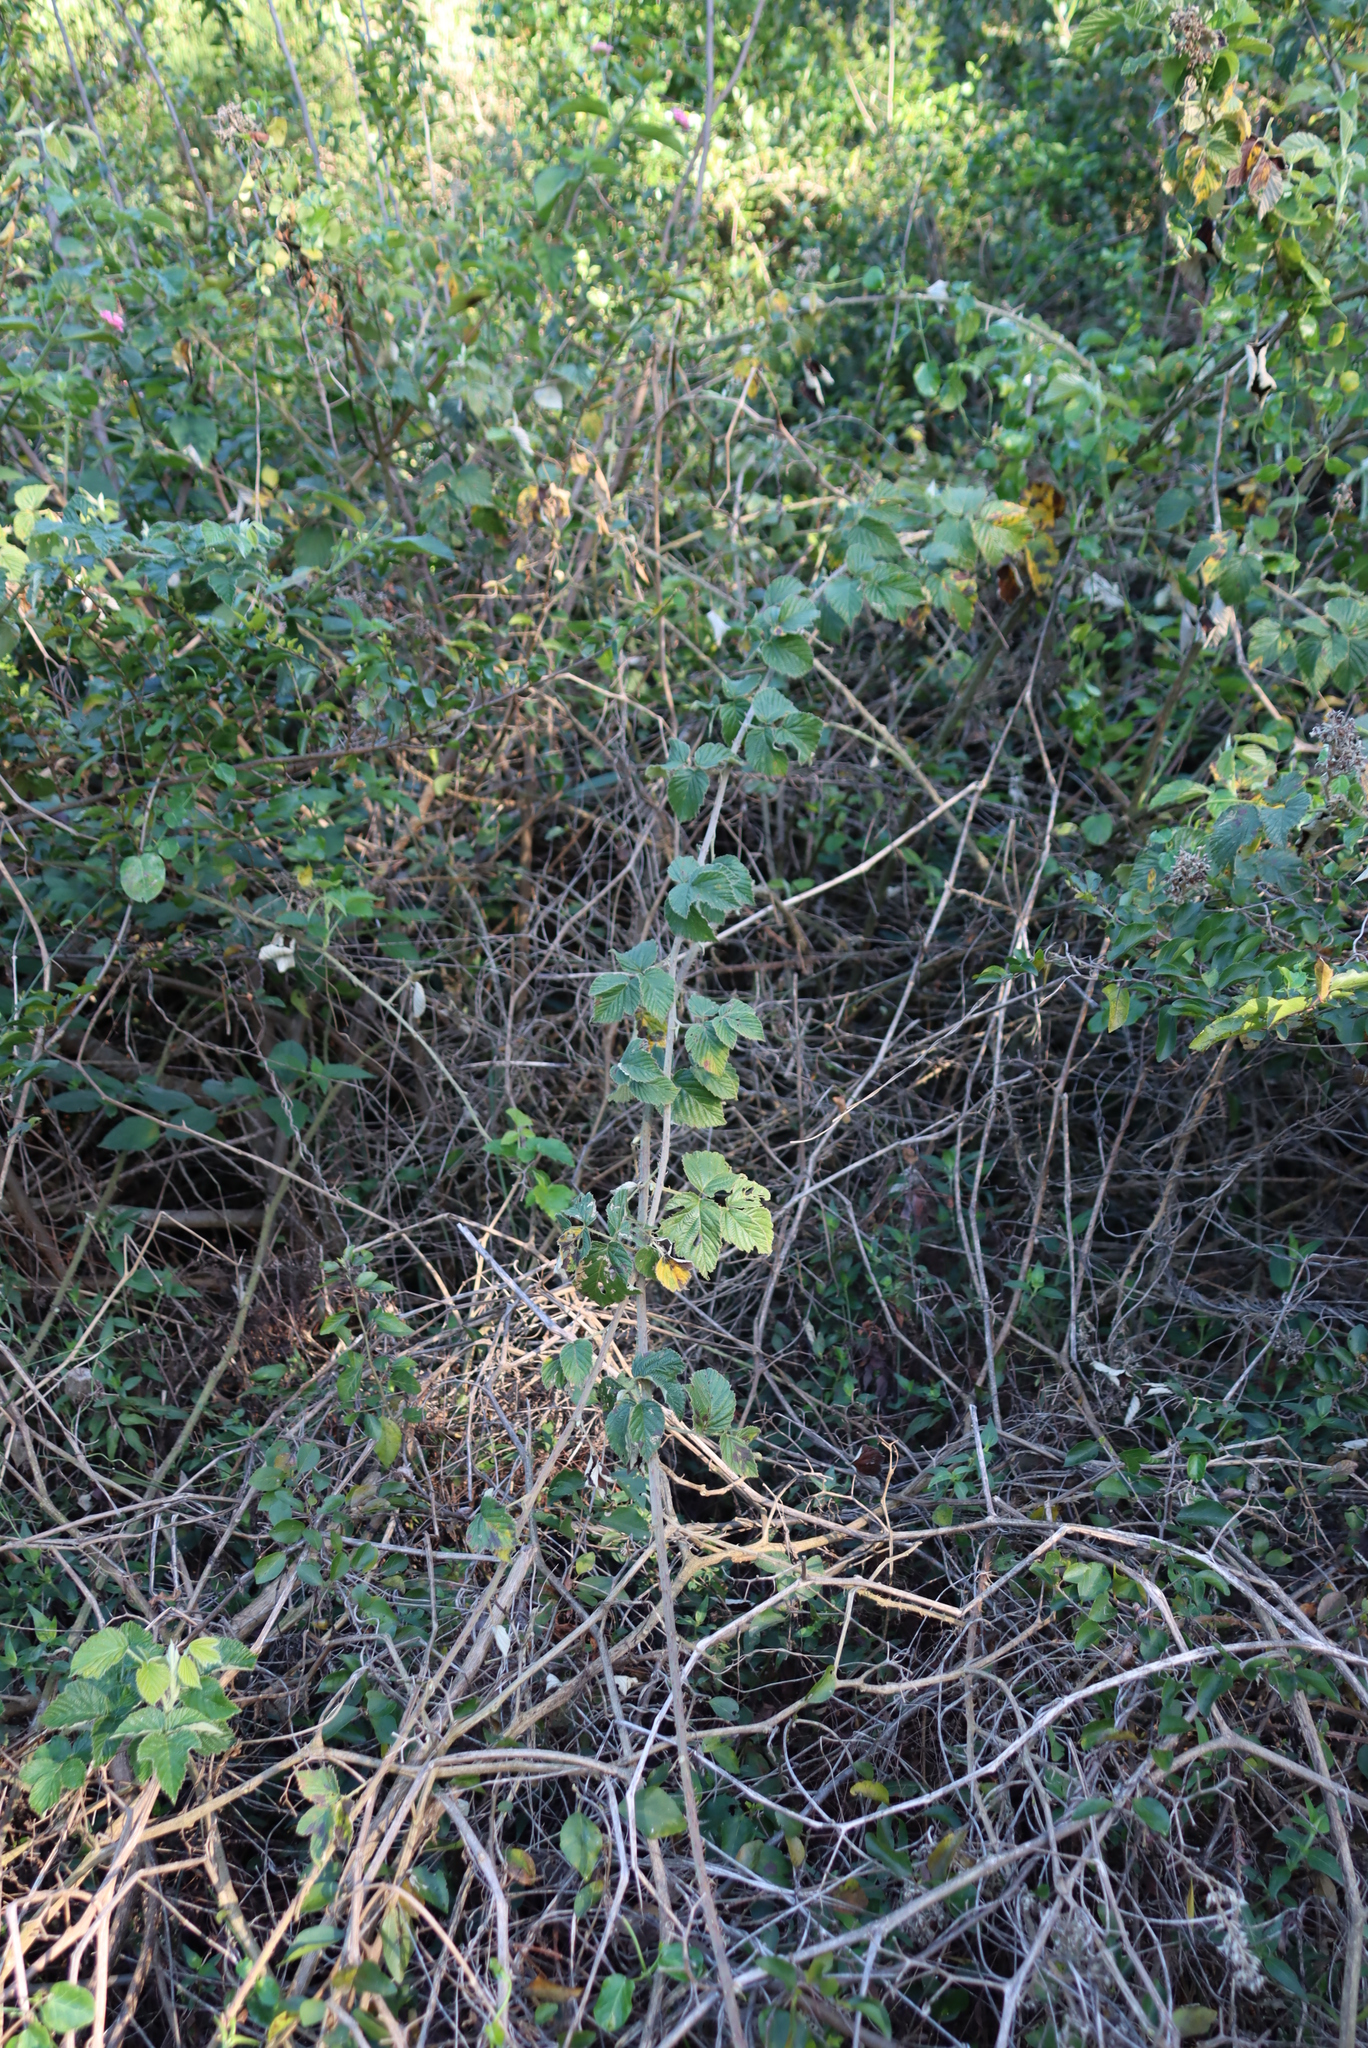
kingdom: Plantae
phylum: Tracheophyta
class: Magnoliopsida
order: Rosales
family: Rosaceae
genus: Rubus
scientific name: Rubus rigidus
